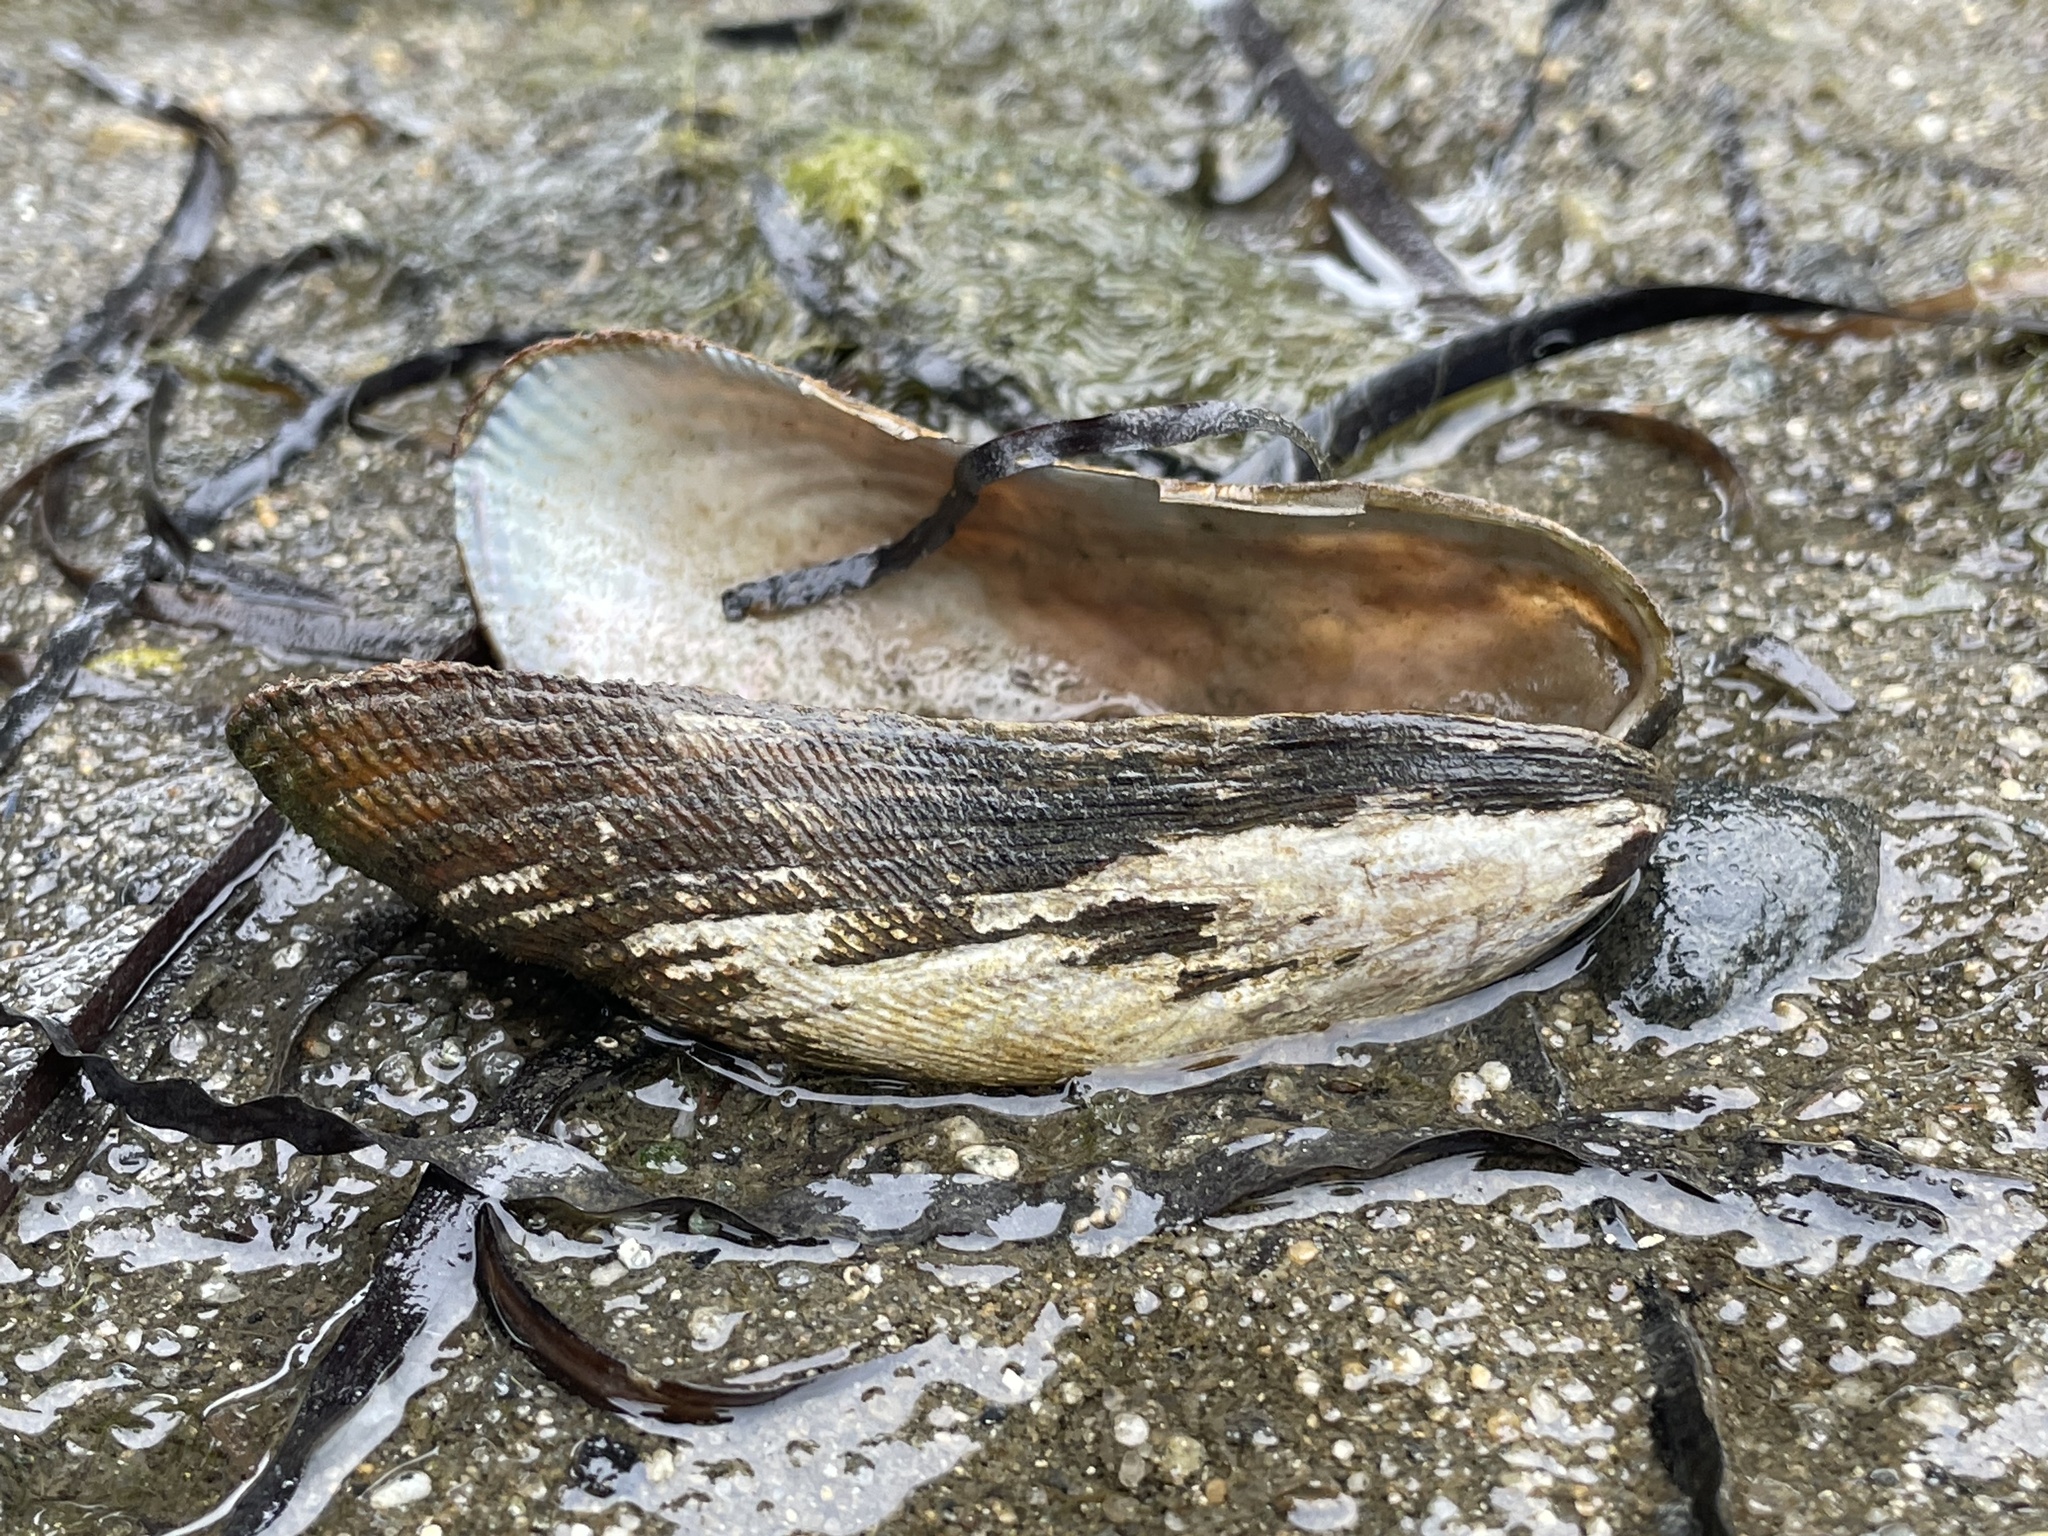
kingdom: Animalia
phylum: Mollusca
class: Bivalvia
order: Mytilida
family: Mytilidae
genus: Geukensia
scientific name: Geukensia demissa
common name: Ribbed mussel
